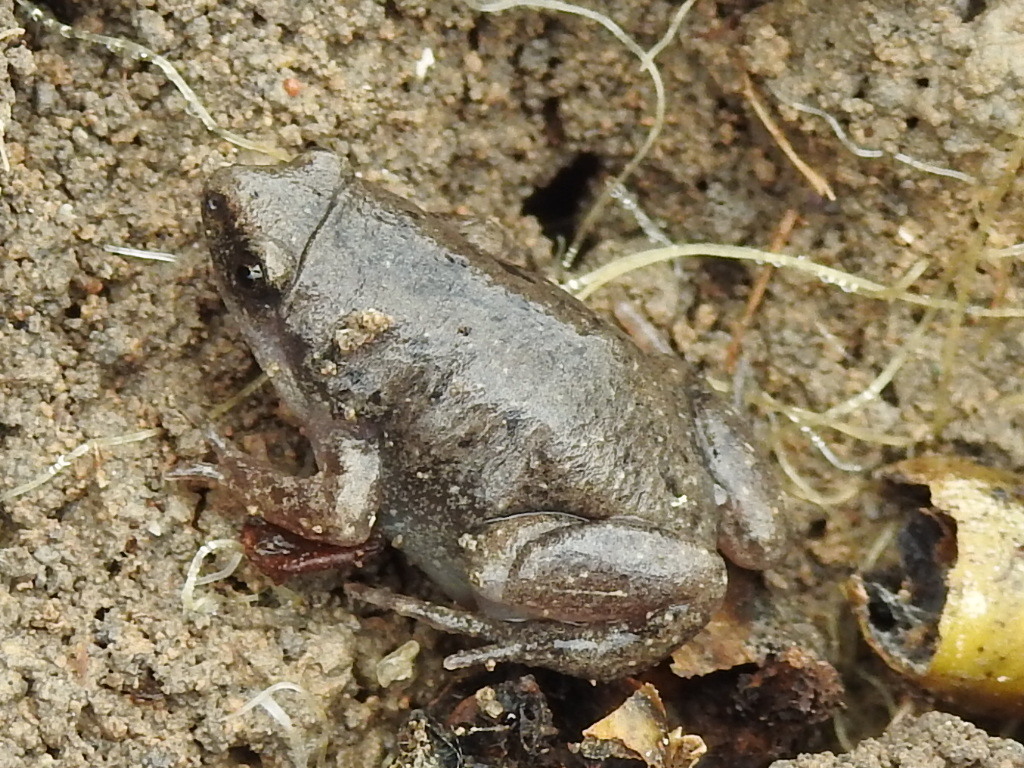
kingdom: Animalia
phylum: Chordata
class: Amphibia
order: Anura
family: Microhylidae
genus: Gastrophryne
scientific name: Gastrophryne olivacea
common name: Great plains narrow-mouthed toad
